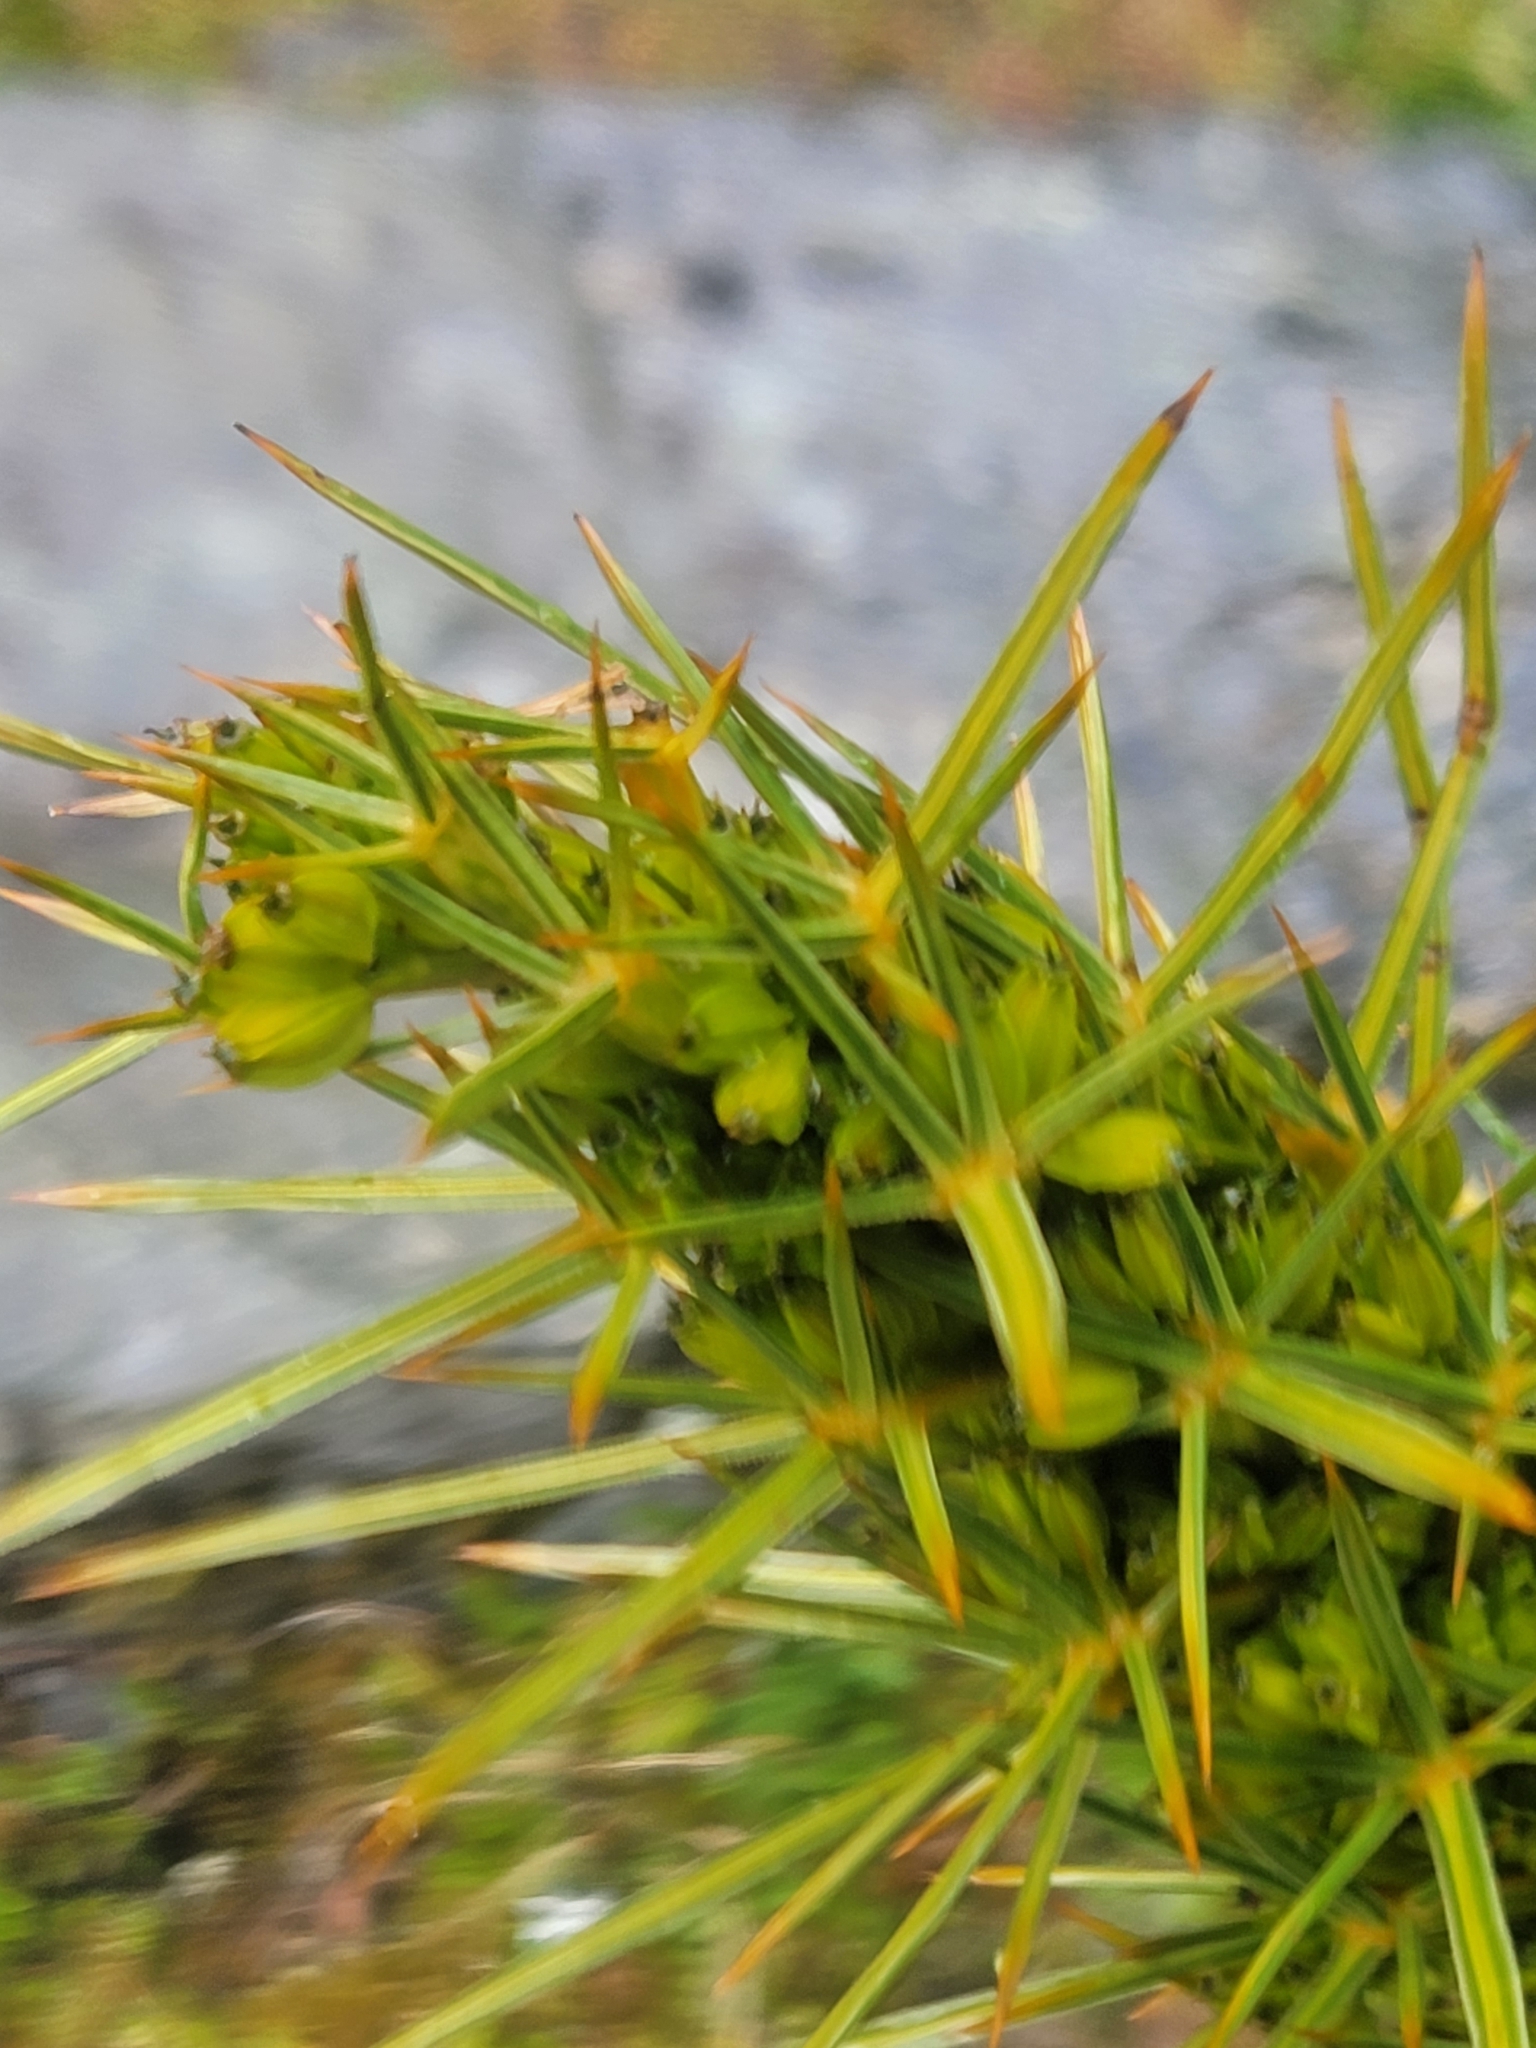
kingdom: Plantae
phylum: Tracheophyta
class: Magnoliopsida
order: Apiales
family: Apiaceae
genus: Aciphylla
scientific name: Aciphylla takahea
